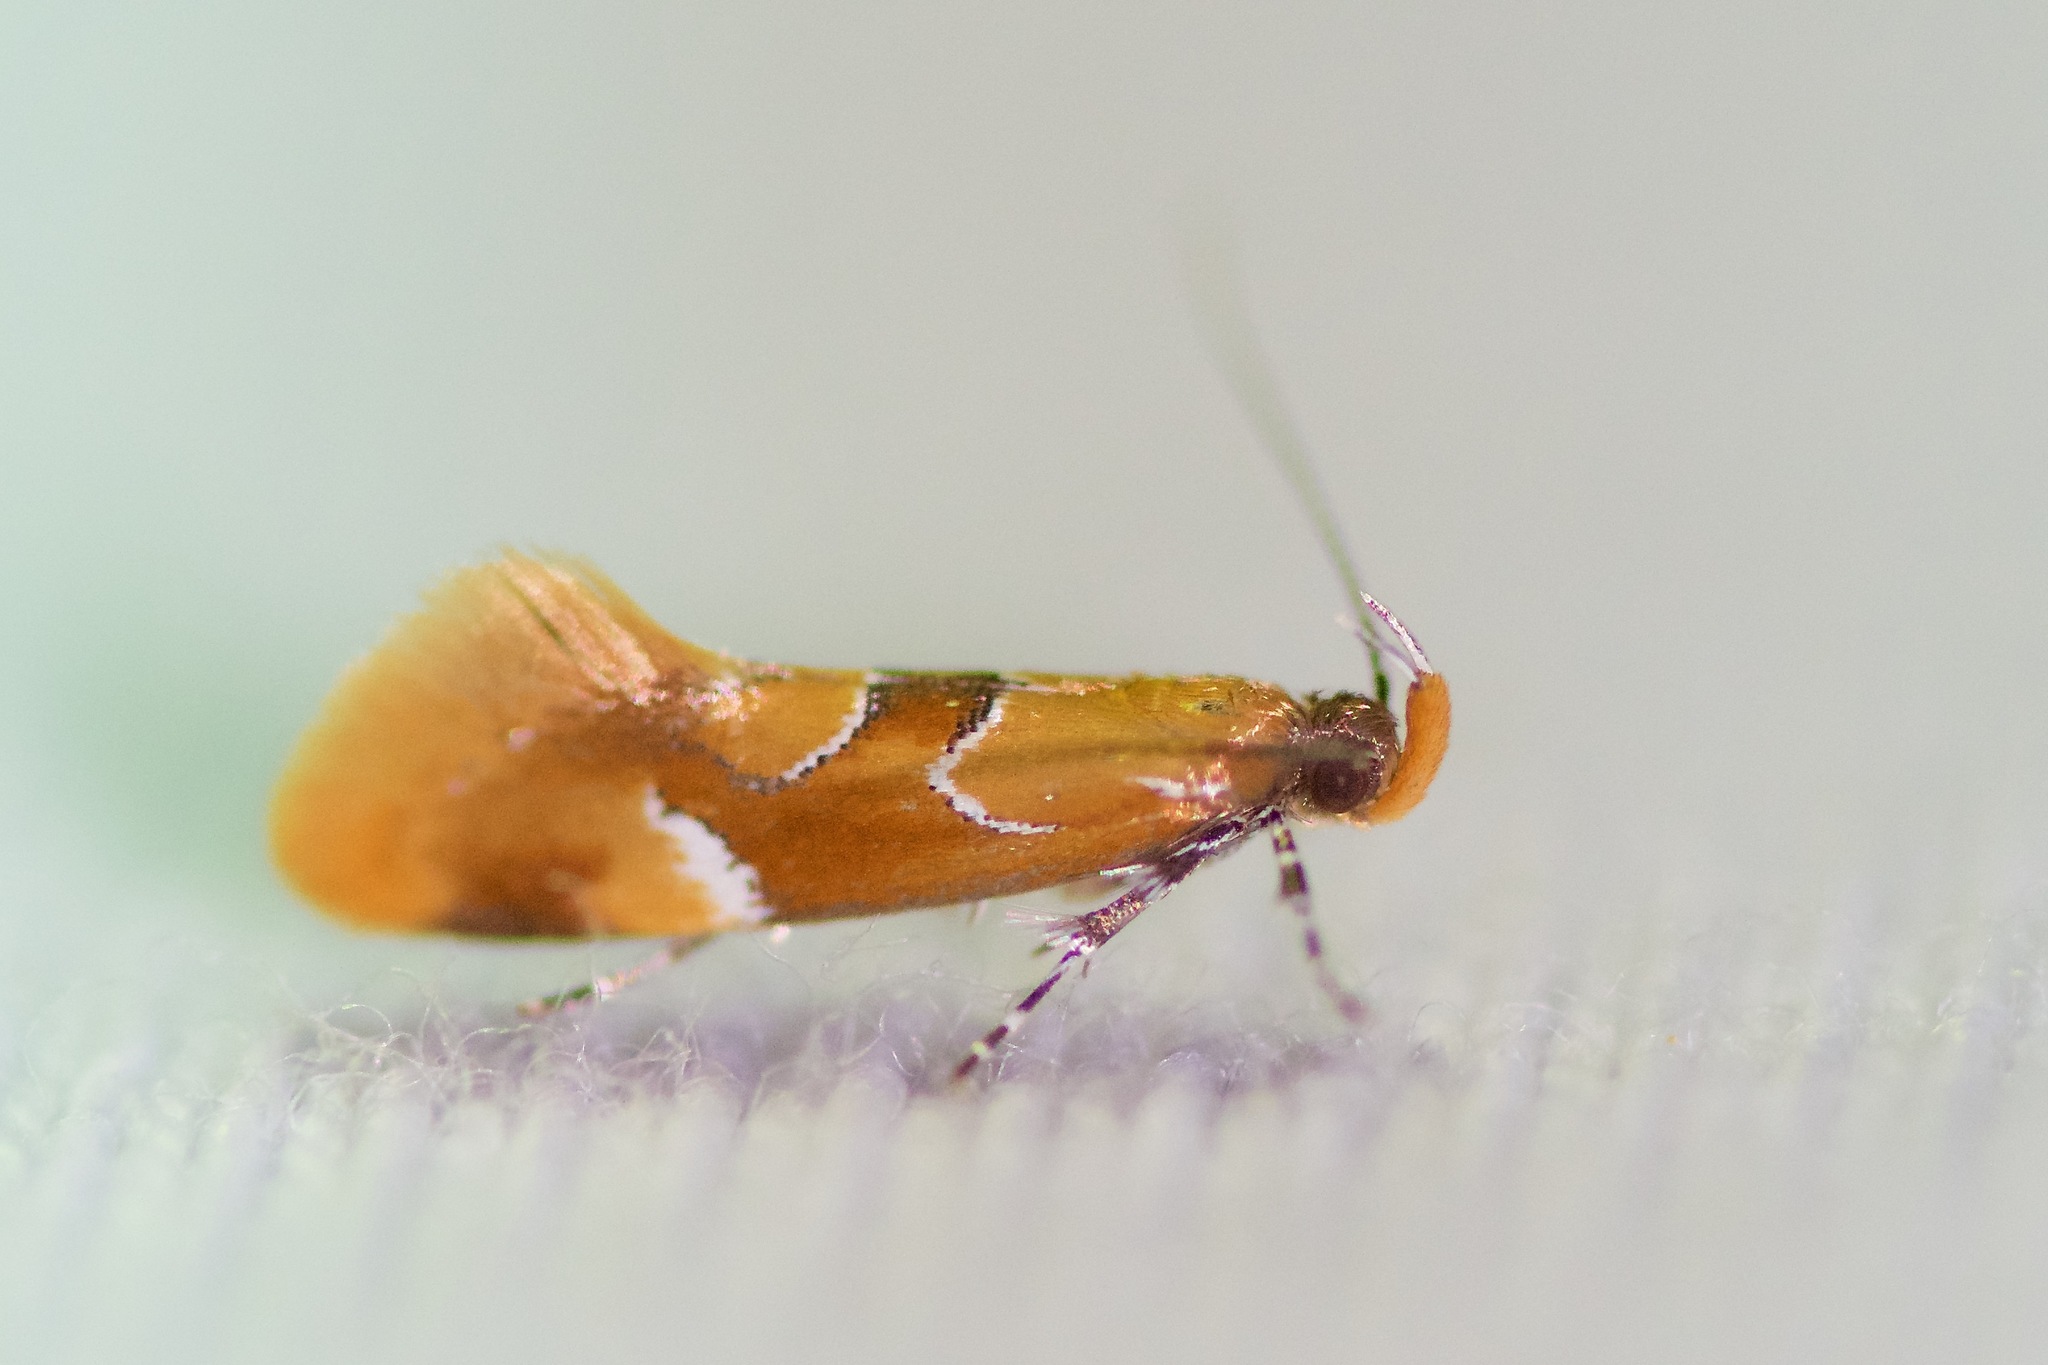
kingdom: Animalia
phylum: Arthropoda
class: Insecta
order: Lepidoptera
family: Oecophoridae
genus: Callima
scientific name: Callima formosella
